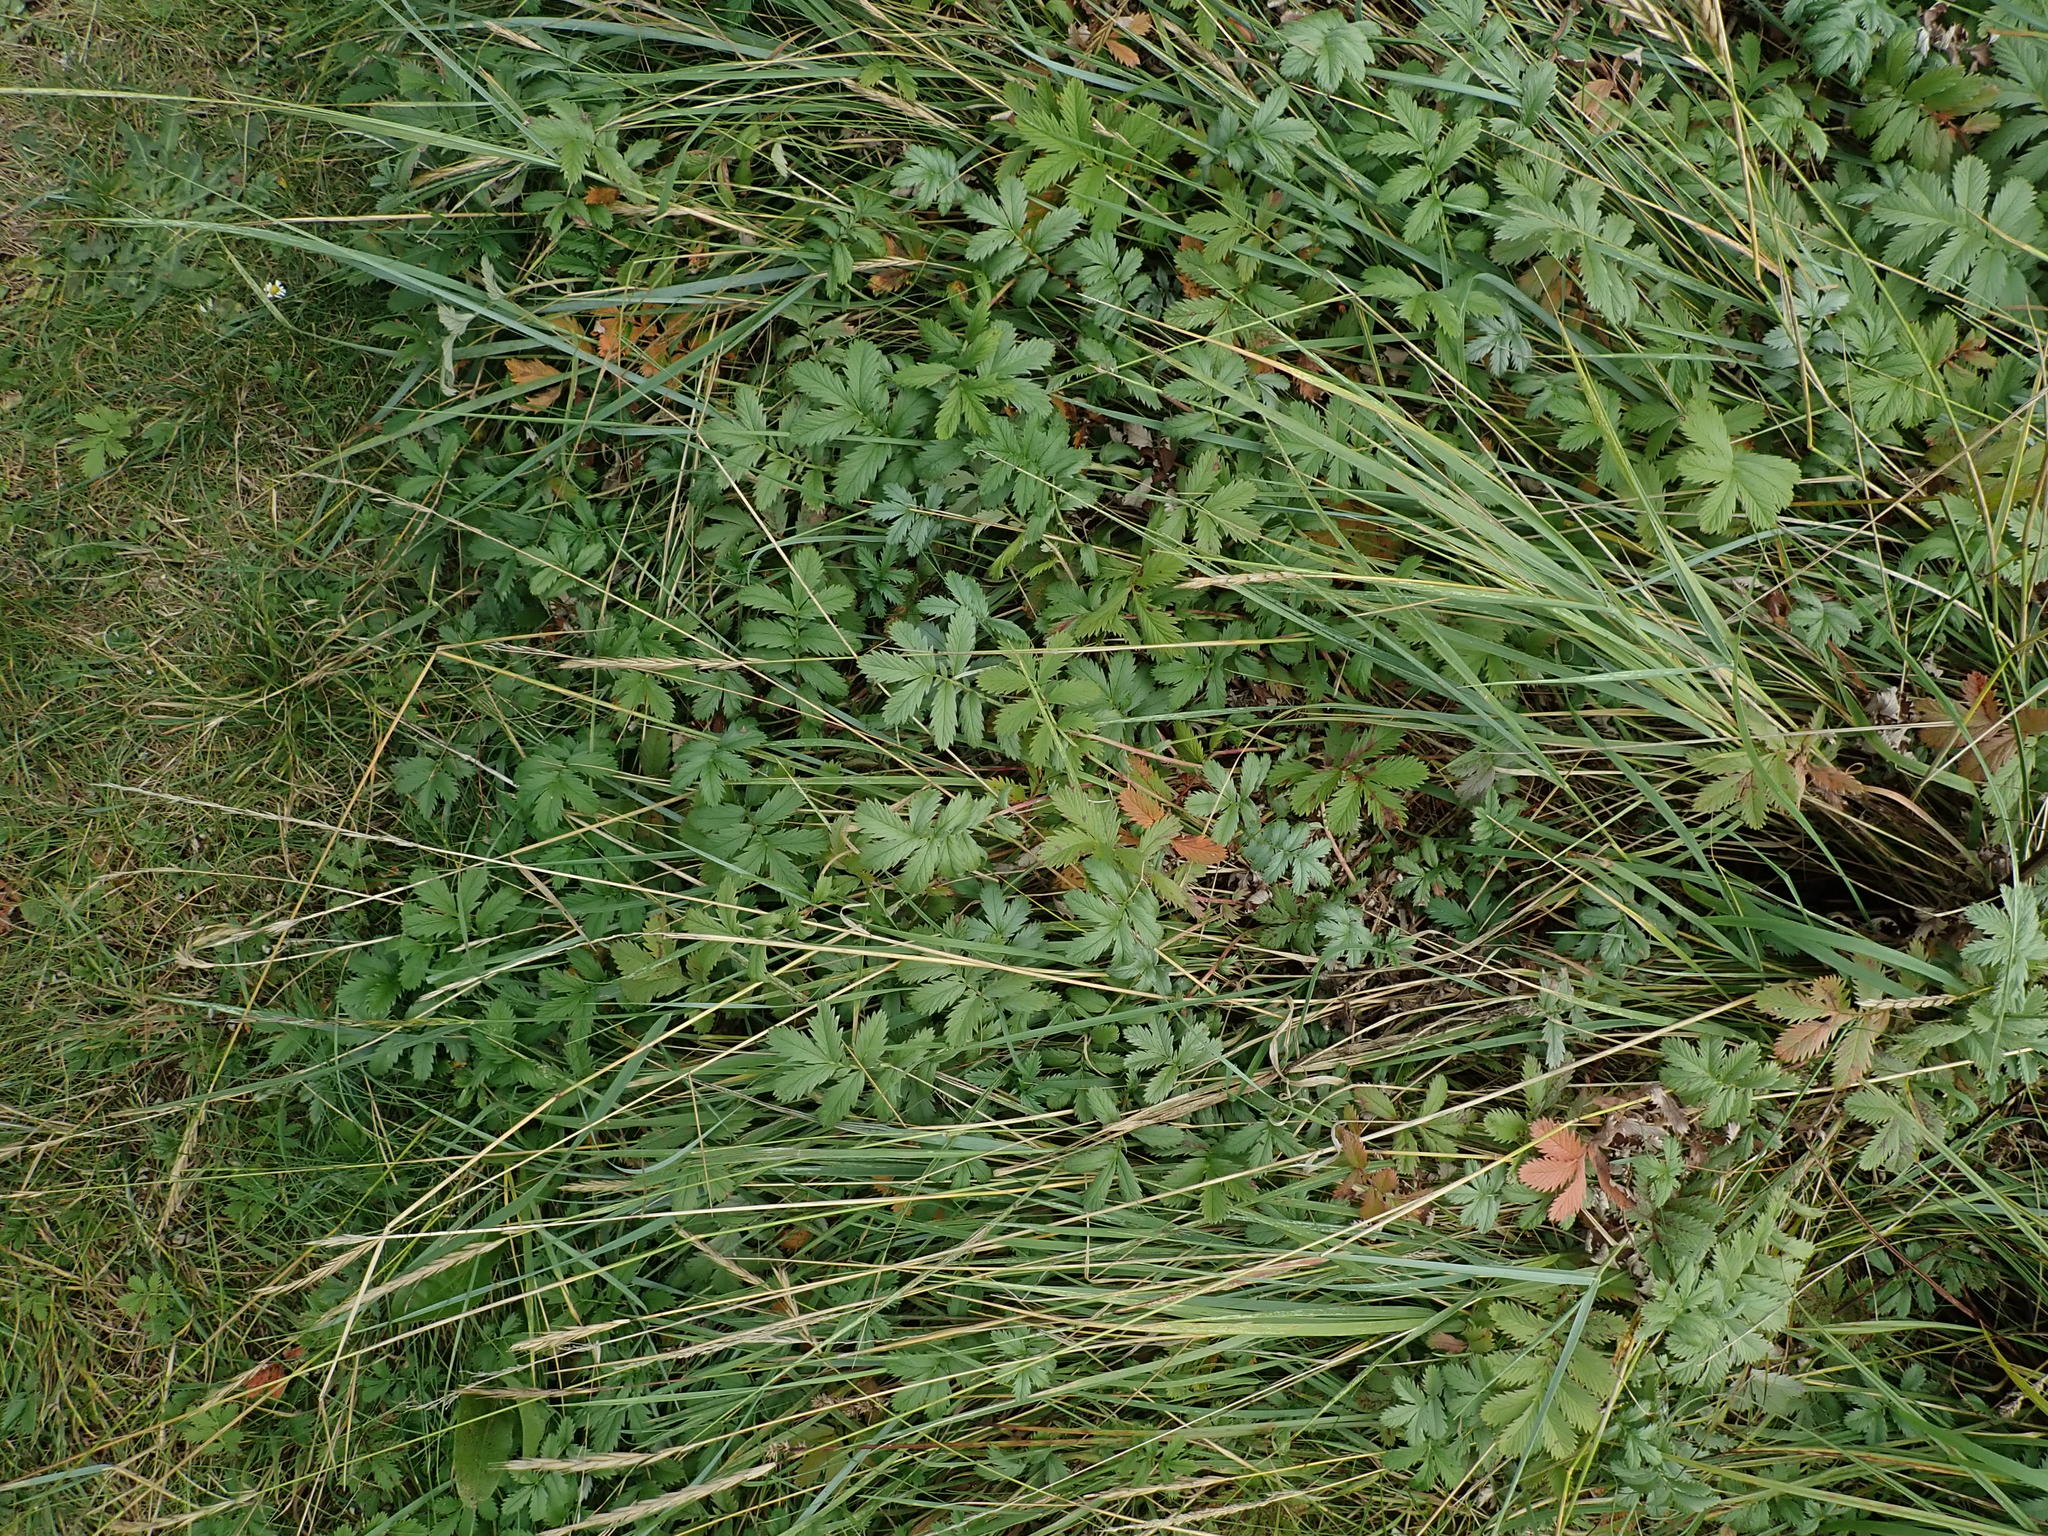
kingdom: Plantae
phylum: Tracheophyta
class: Magnoliopsida
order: Rosales
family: Rosaceae
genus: Argentina
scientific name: Argentina anserina
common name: Common silverweed
